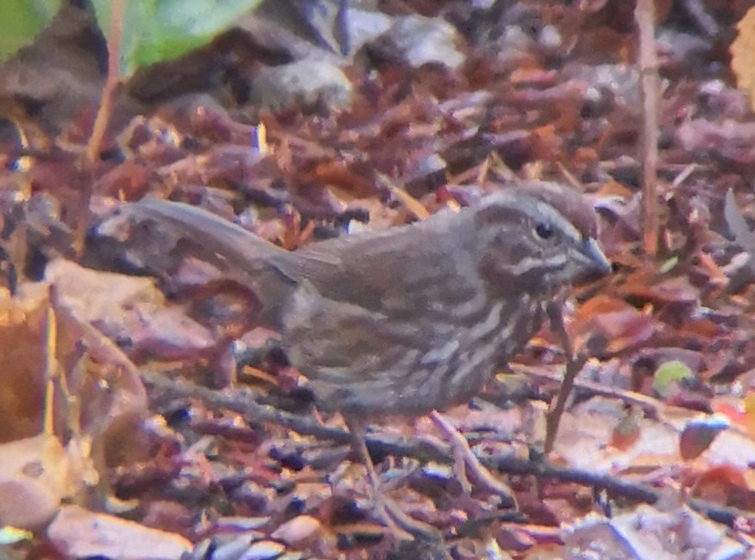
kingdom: Animalia
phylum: Chordata
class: Aves
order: Passeriformes
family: Passerellidae
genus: Melospiza
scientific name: Melospiza melodia
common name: Song sparrow
